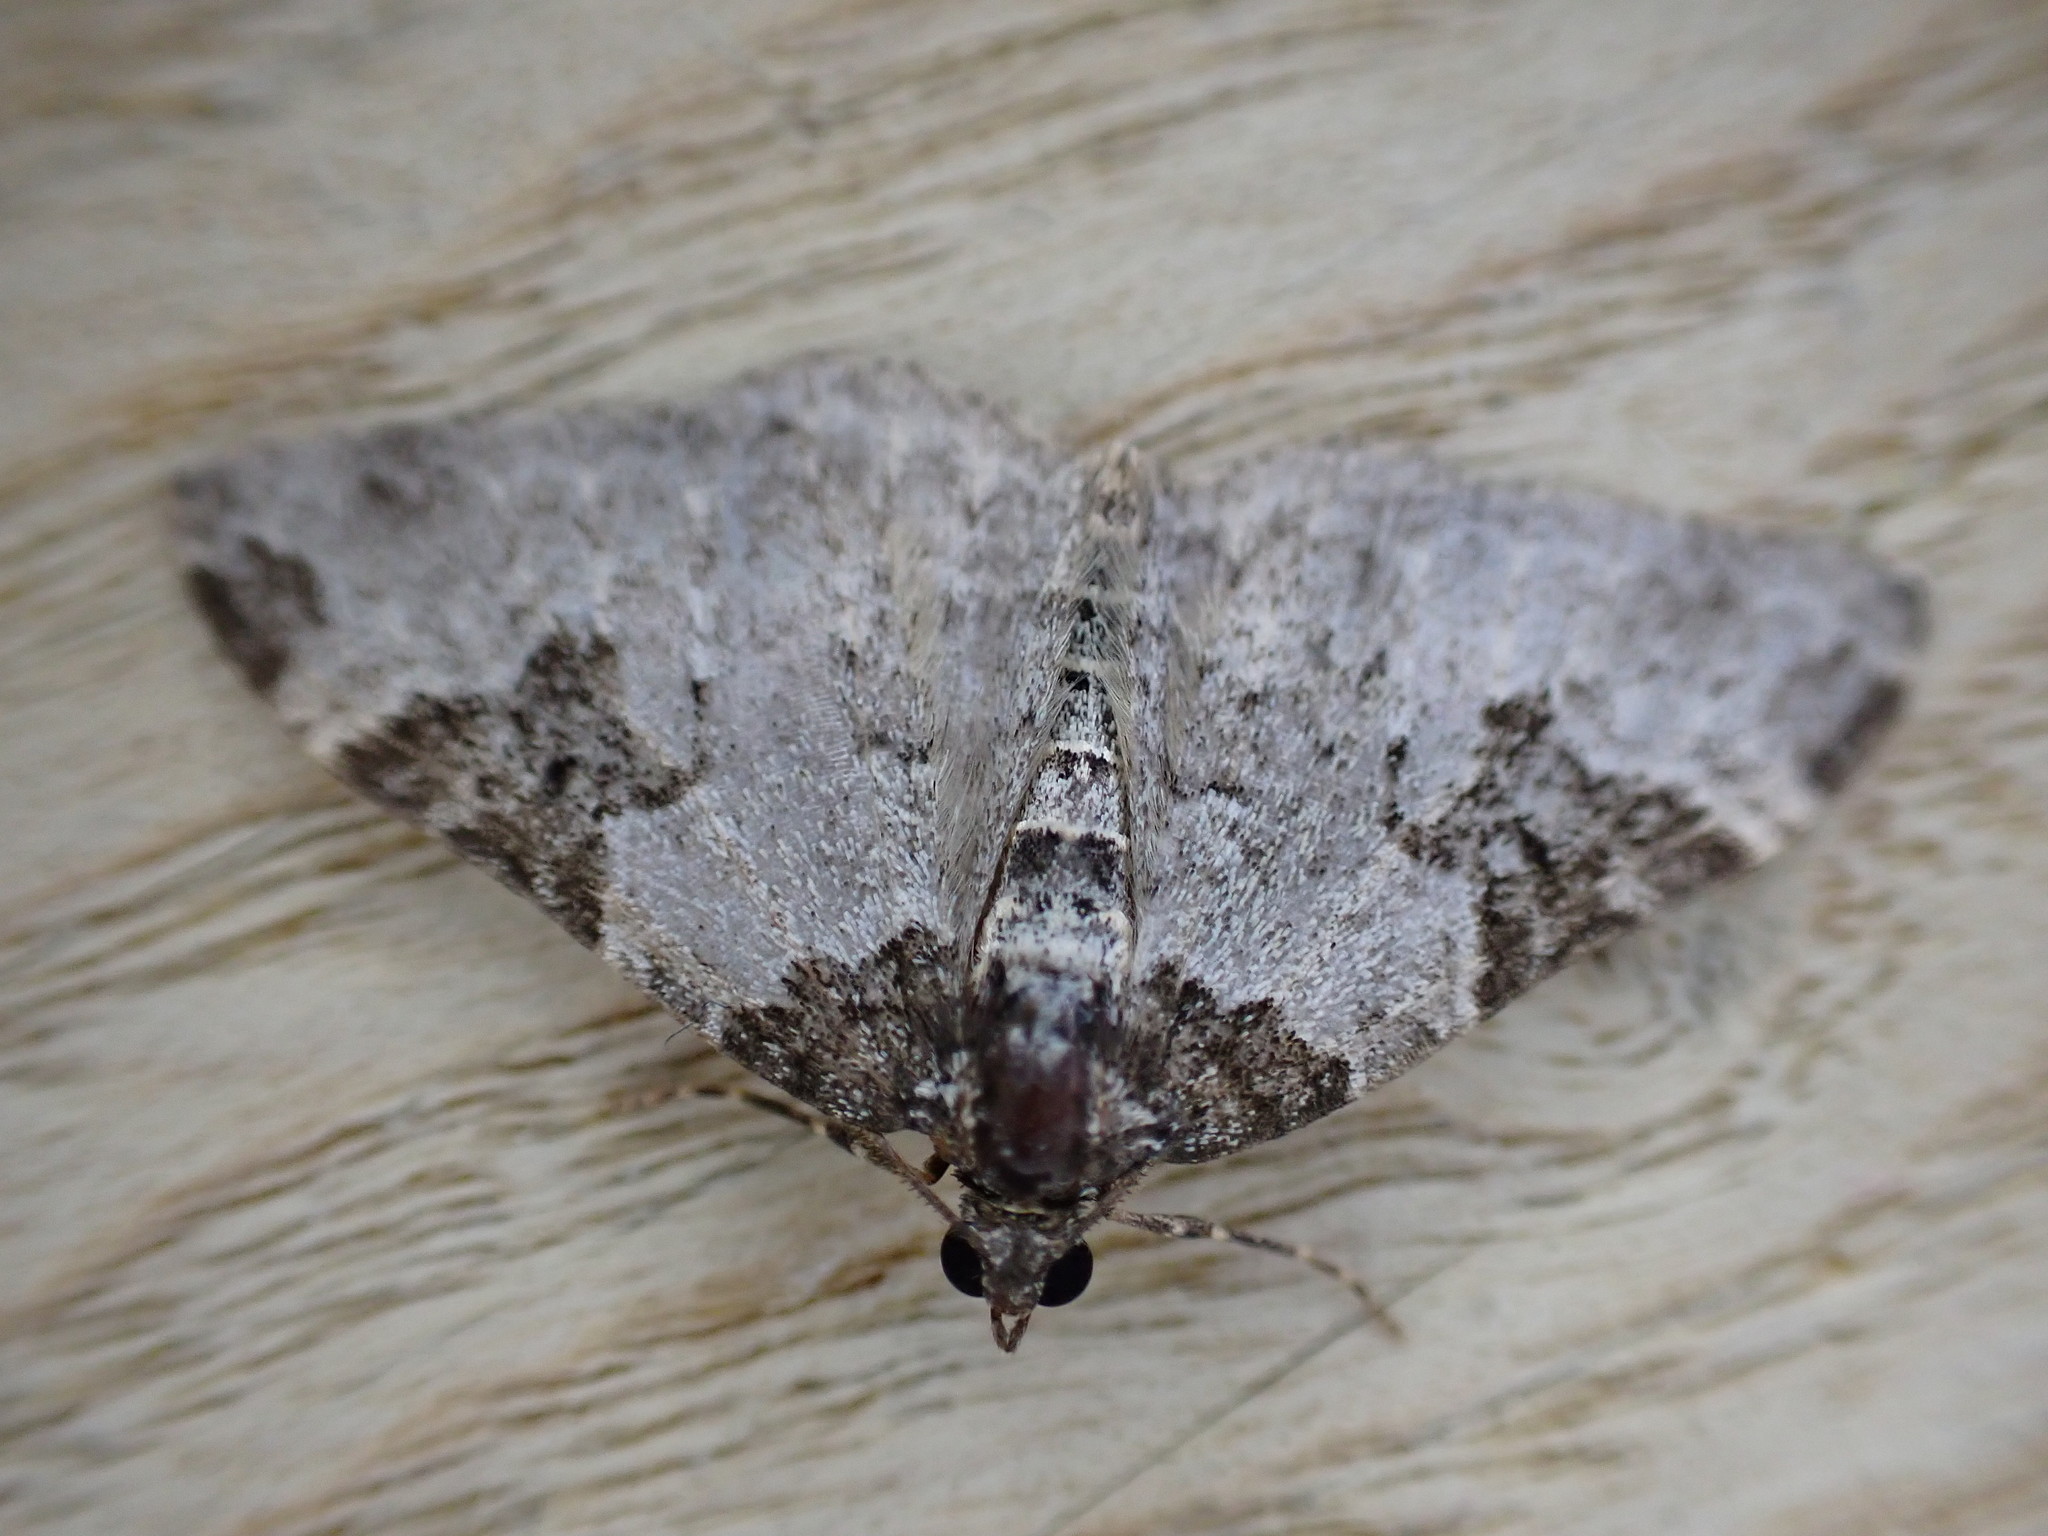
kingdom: Animalia
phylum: Arthropoda
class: Insecta
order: Lepidoptera
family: Geometridae
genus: Xanthorhoe
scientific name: Xanthorhoe fluctuata
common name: Garden carpet
